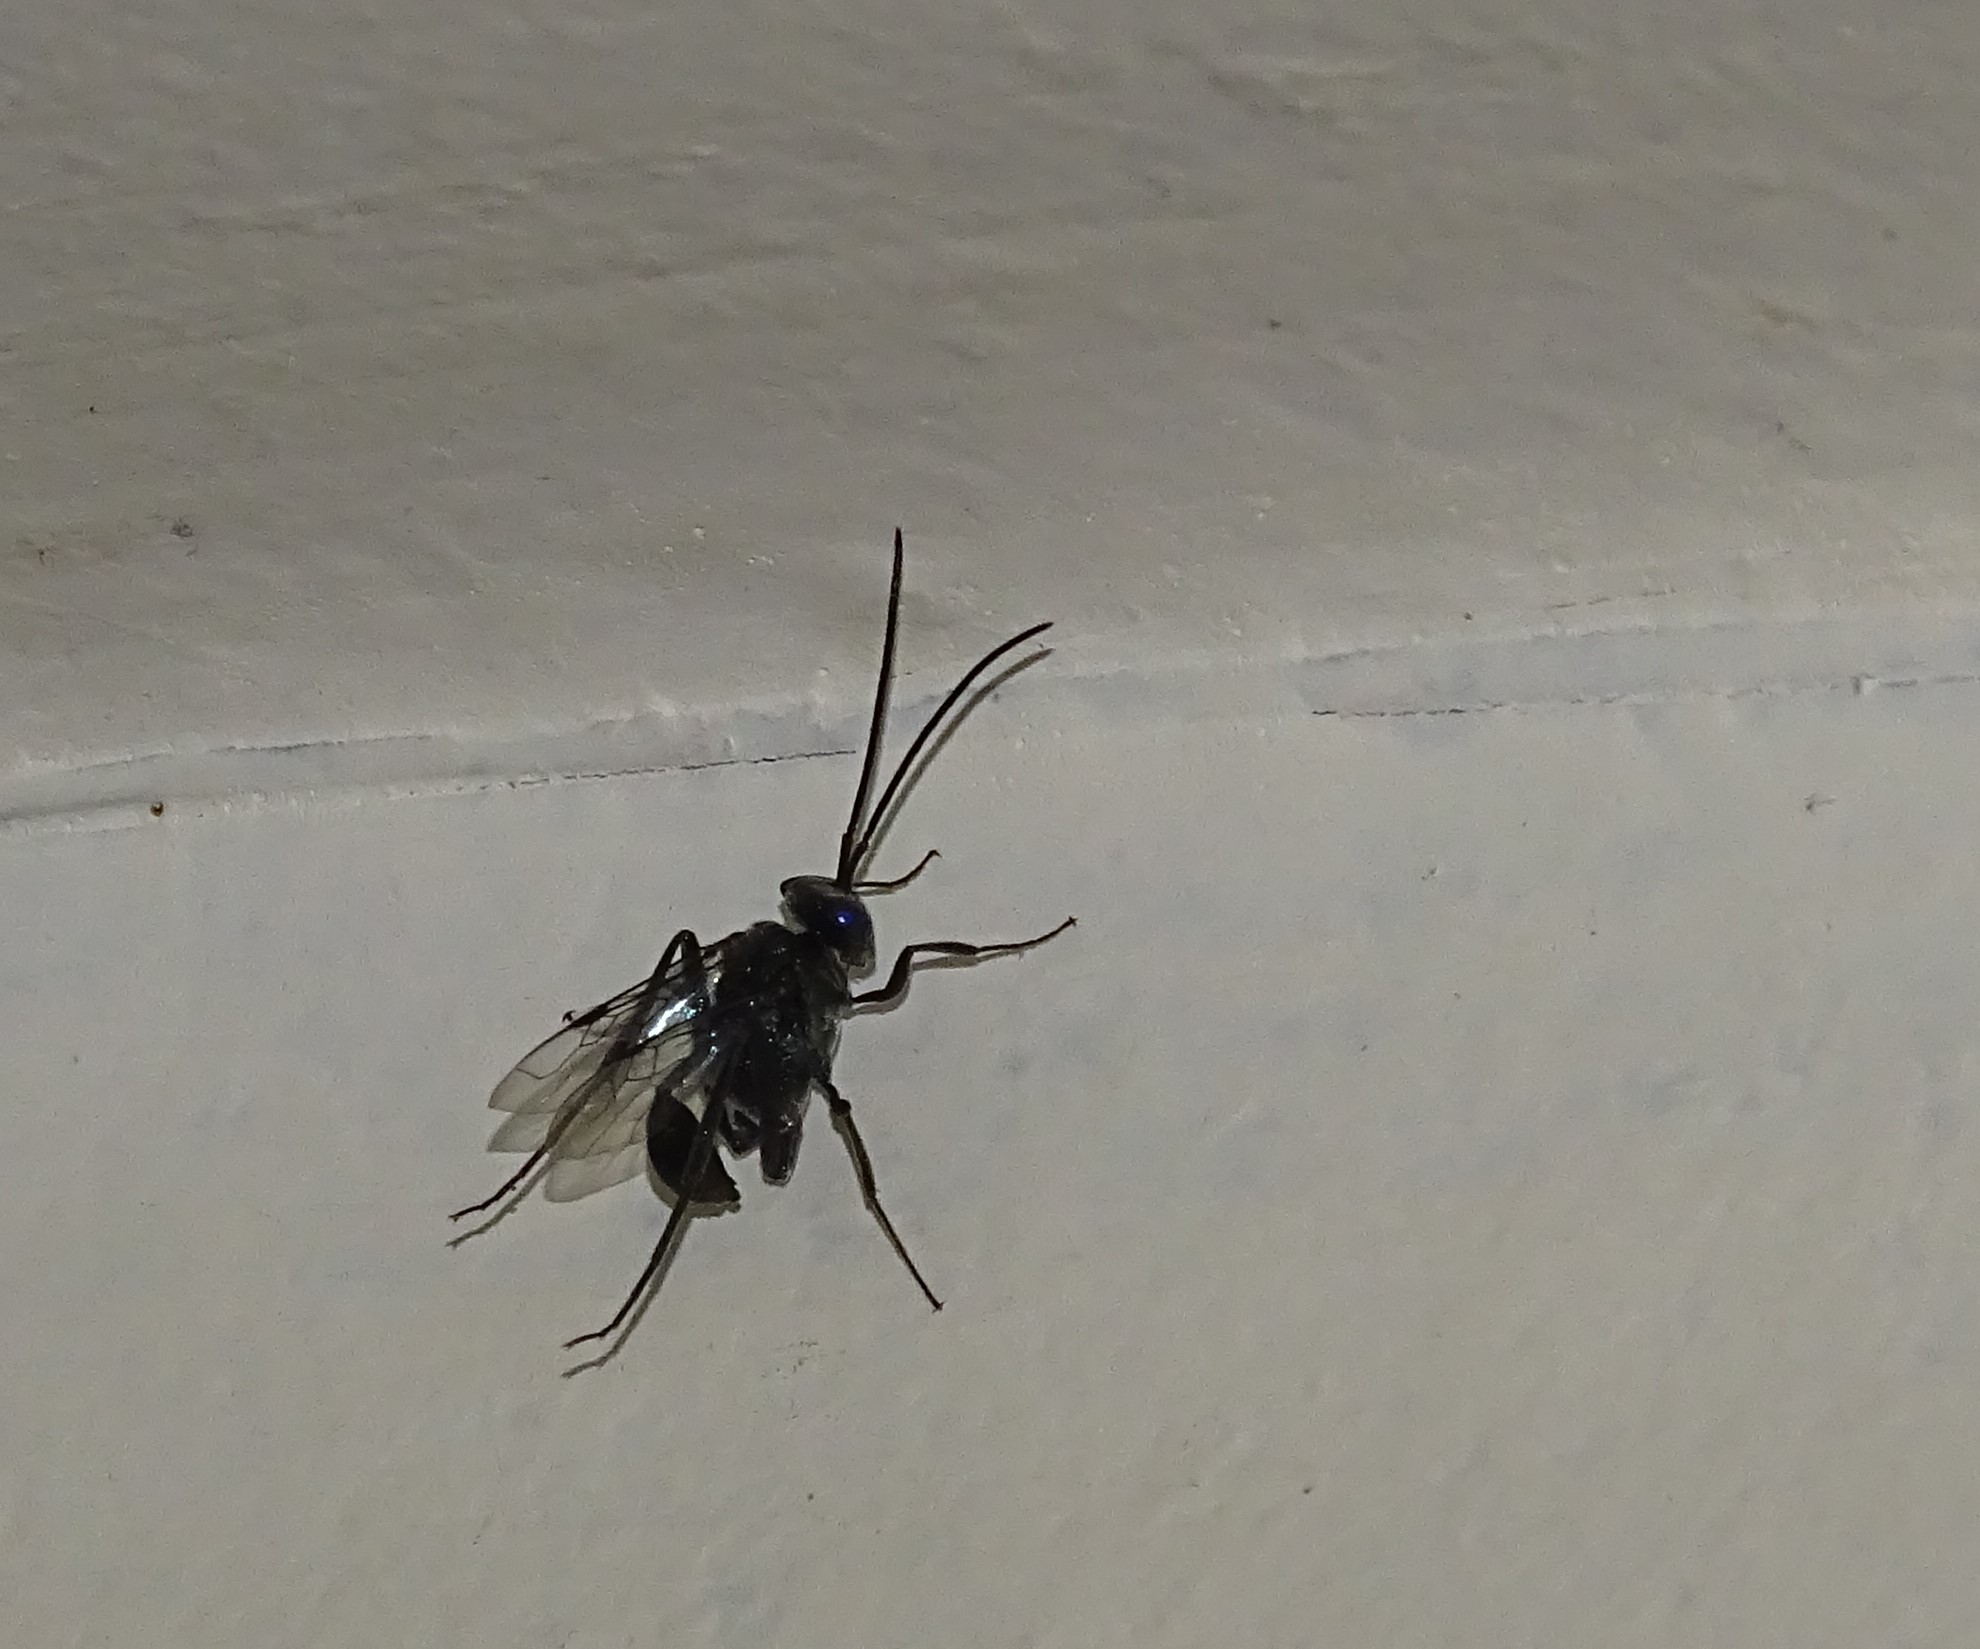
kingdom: Animalia
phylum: Arthropoda
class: Insecta
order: Hymenoptera
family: Evaniidae
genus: Evania
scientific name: Evania appendigaster
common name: Ensign wasp
